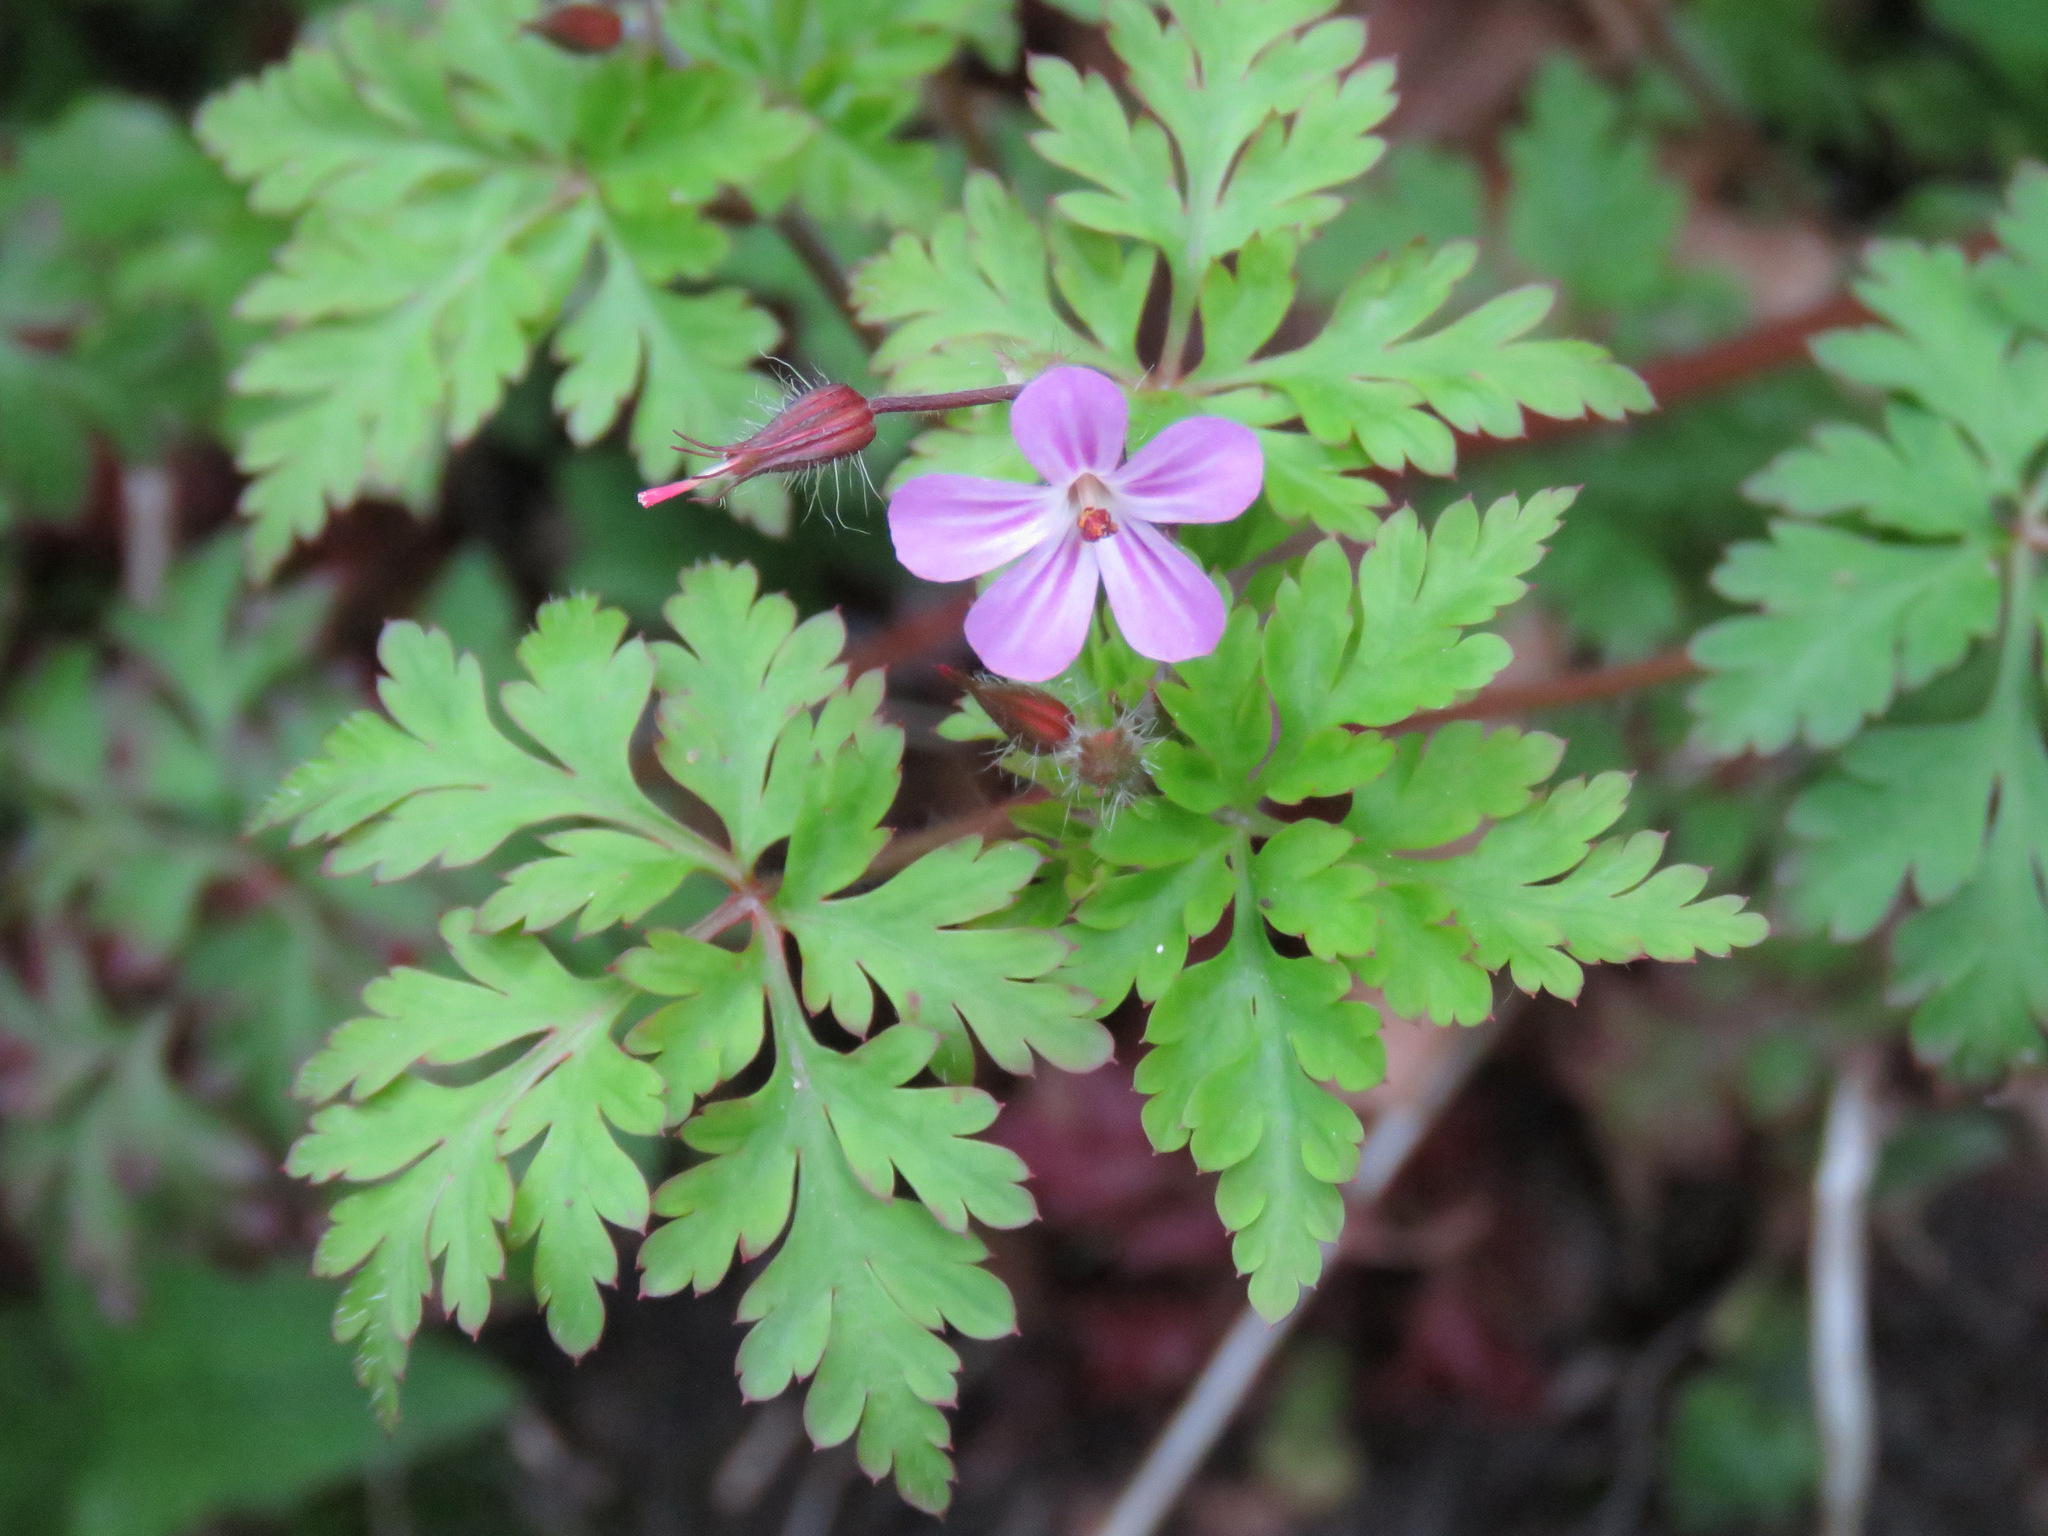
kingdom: Plantae
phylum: Tracheophyta
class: Magnoliopsida
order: Geraniales
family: Geraniaceae
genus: Geranium
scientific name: Geranium robertianum
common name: Herb-robert
